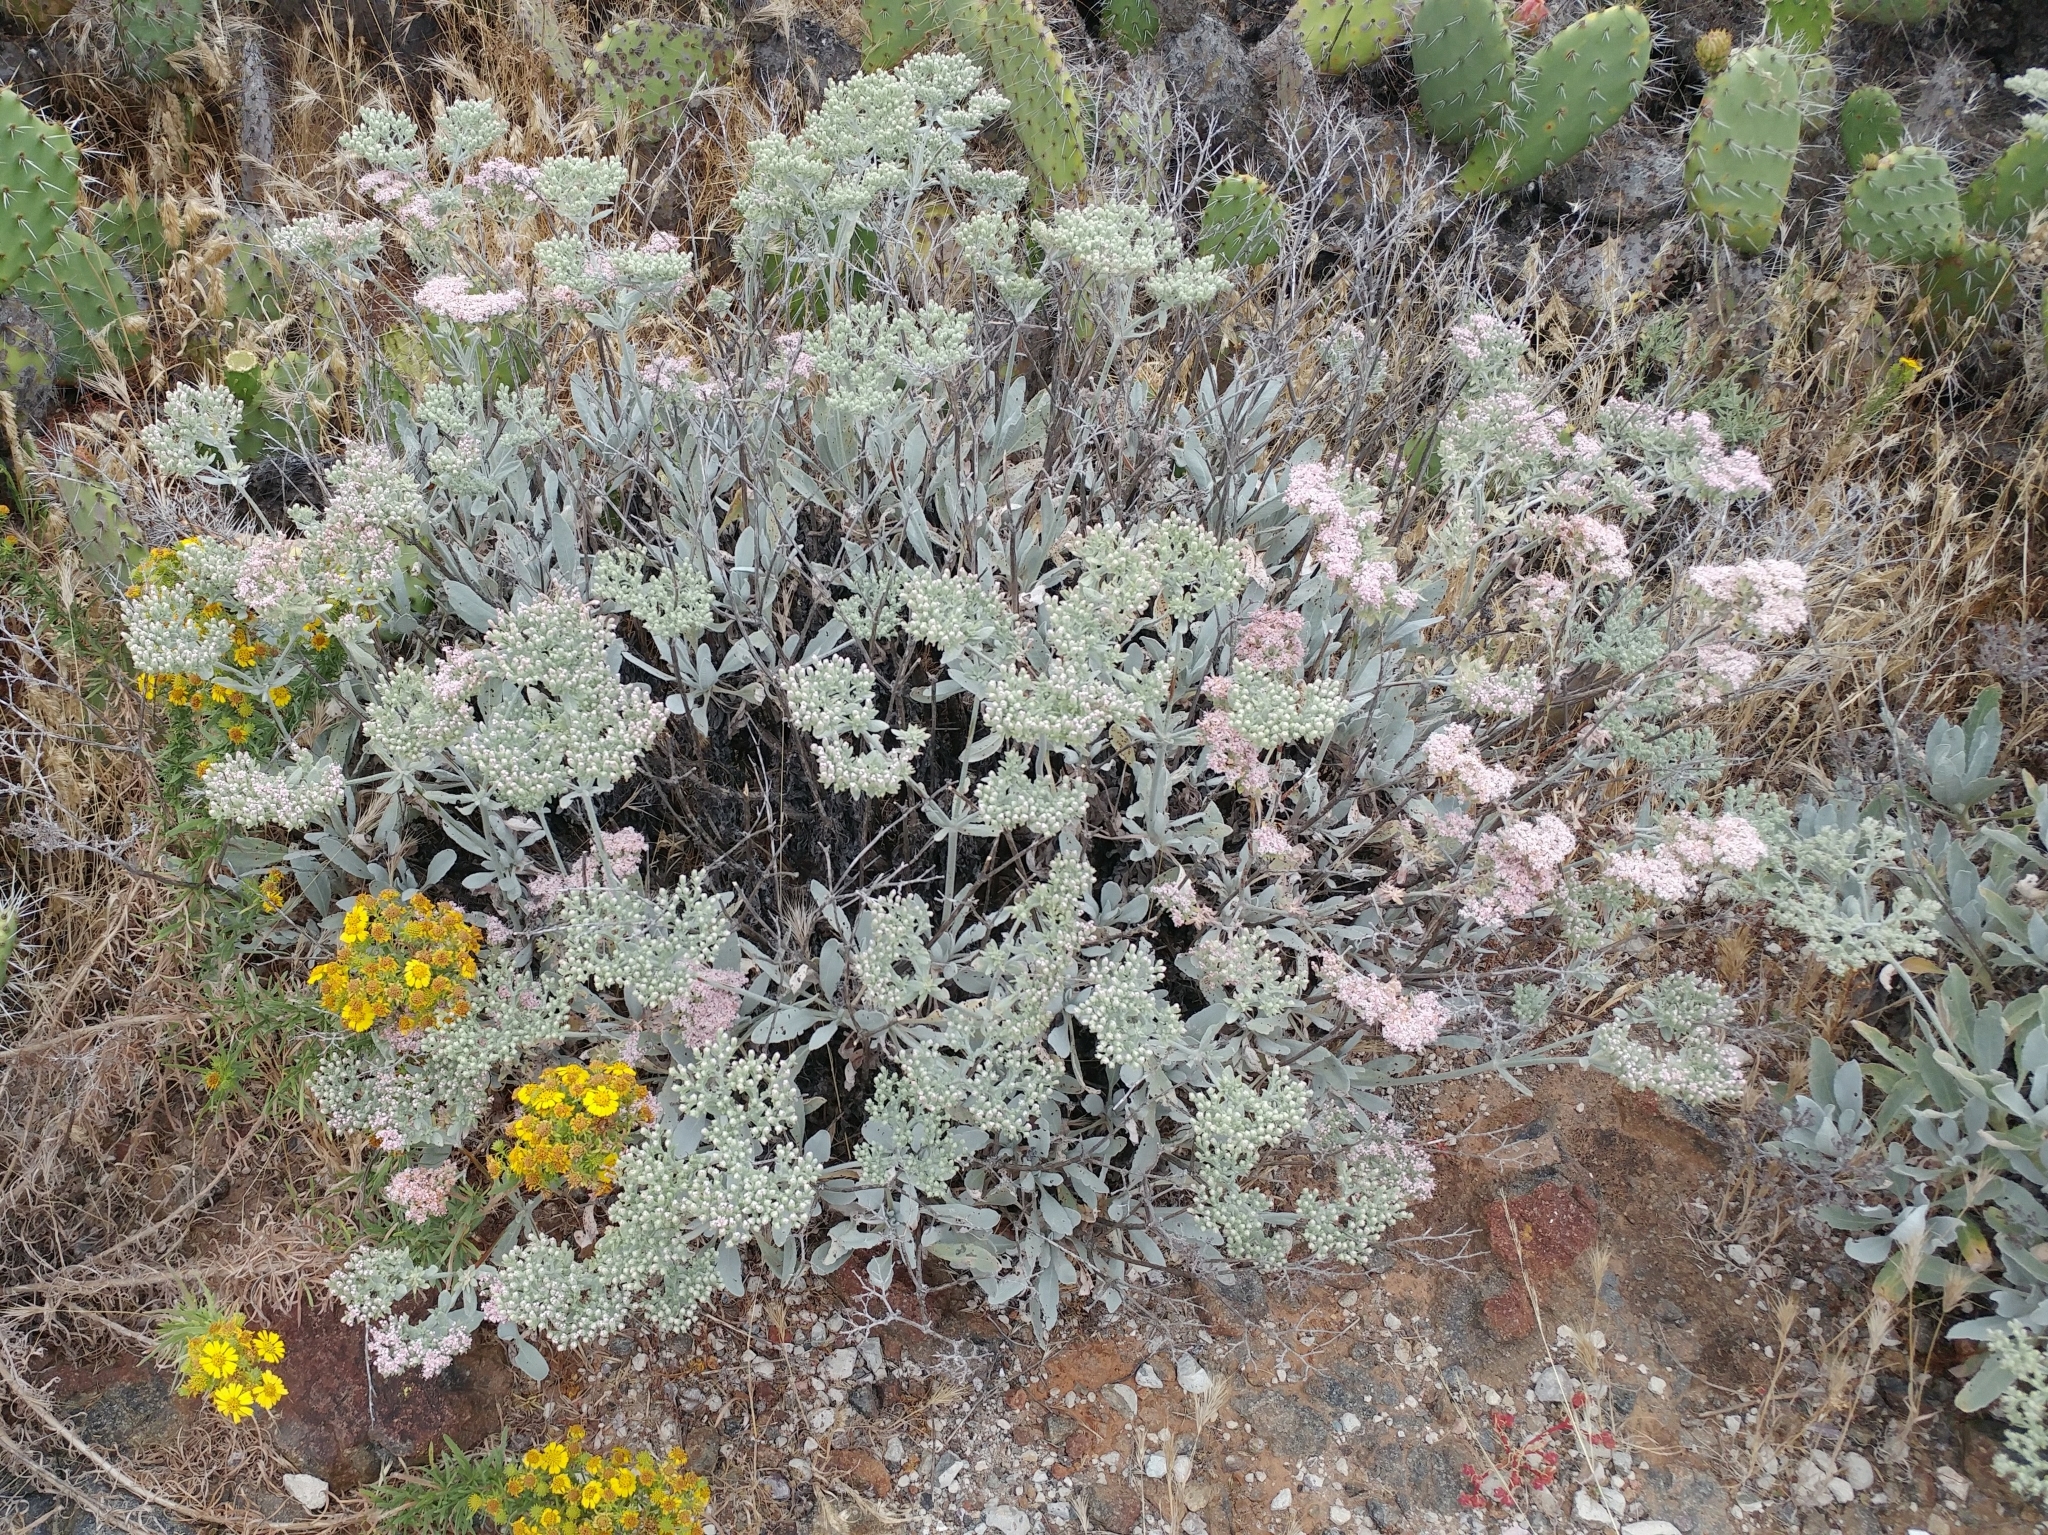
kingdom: Plantae
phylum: Tracheophyta
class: Magnoliopsida
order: Caryophyllales
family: Polygonaceae
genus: Eriogonum
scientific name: Eriogonum giganteum
